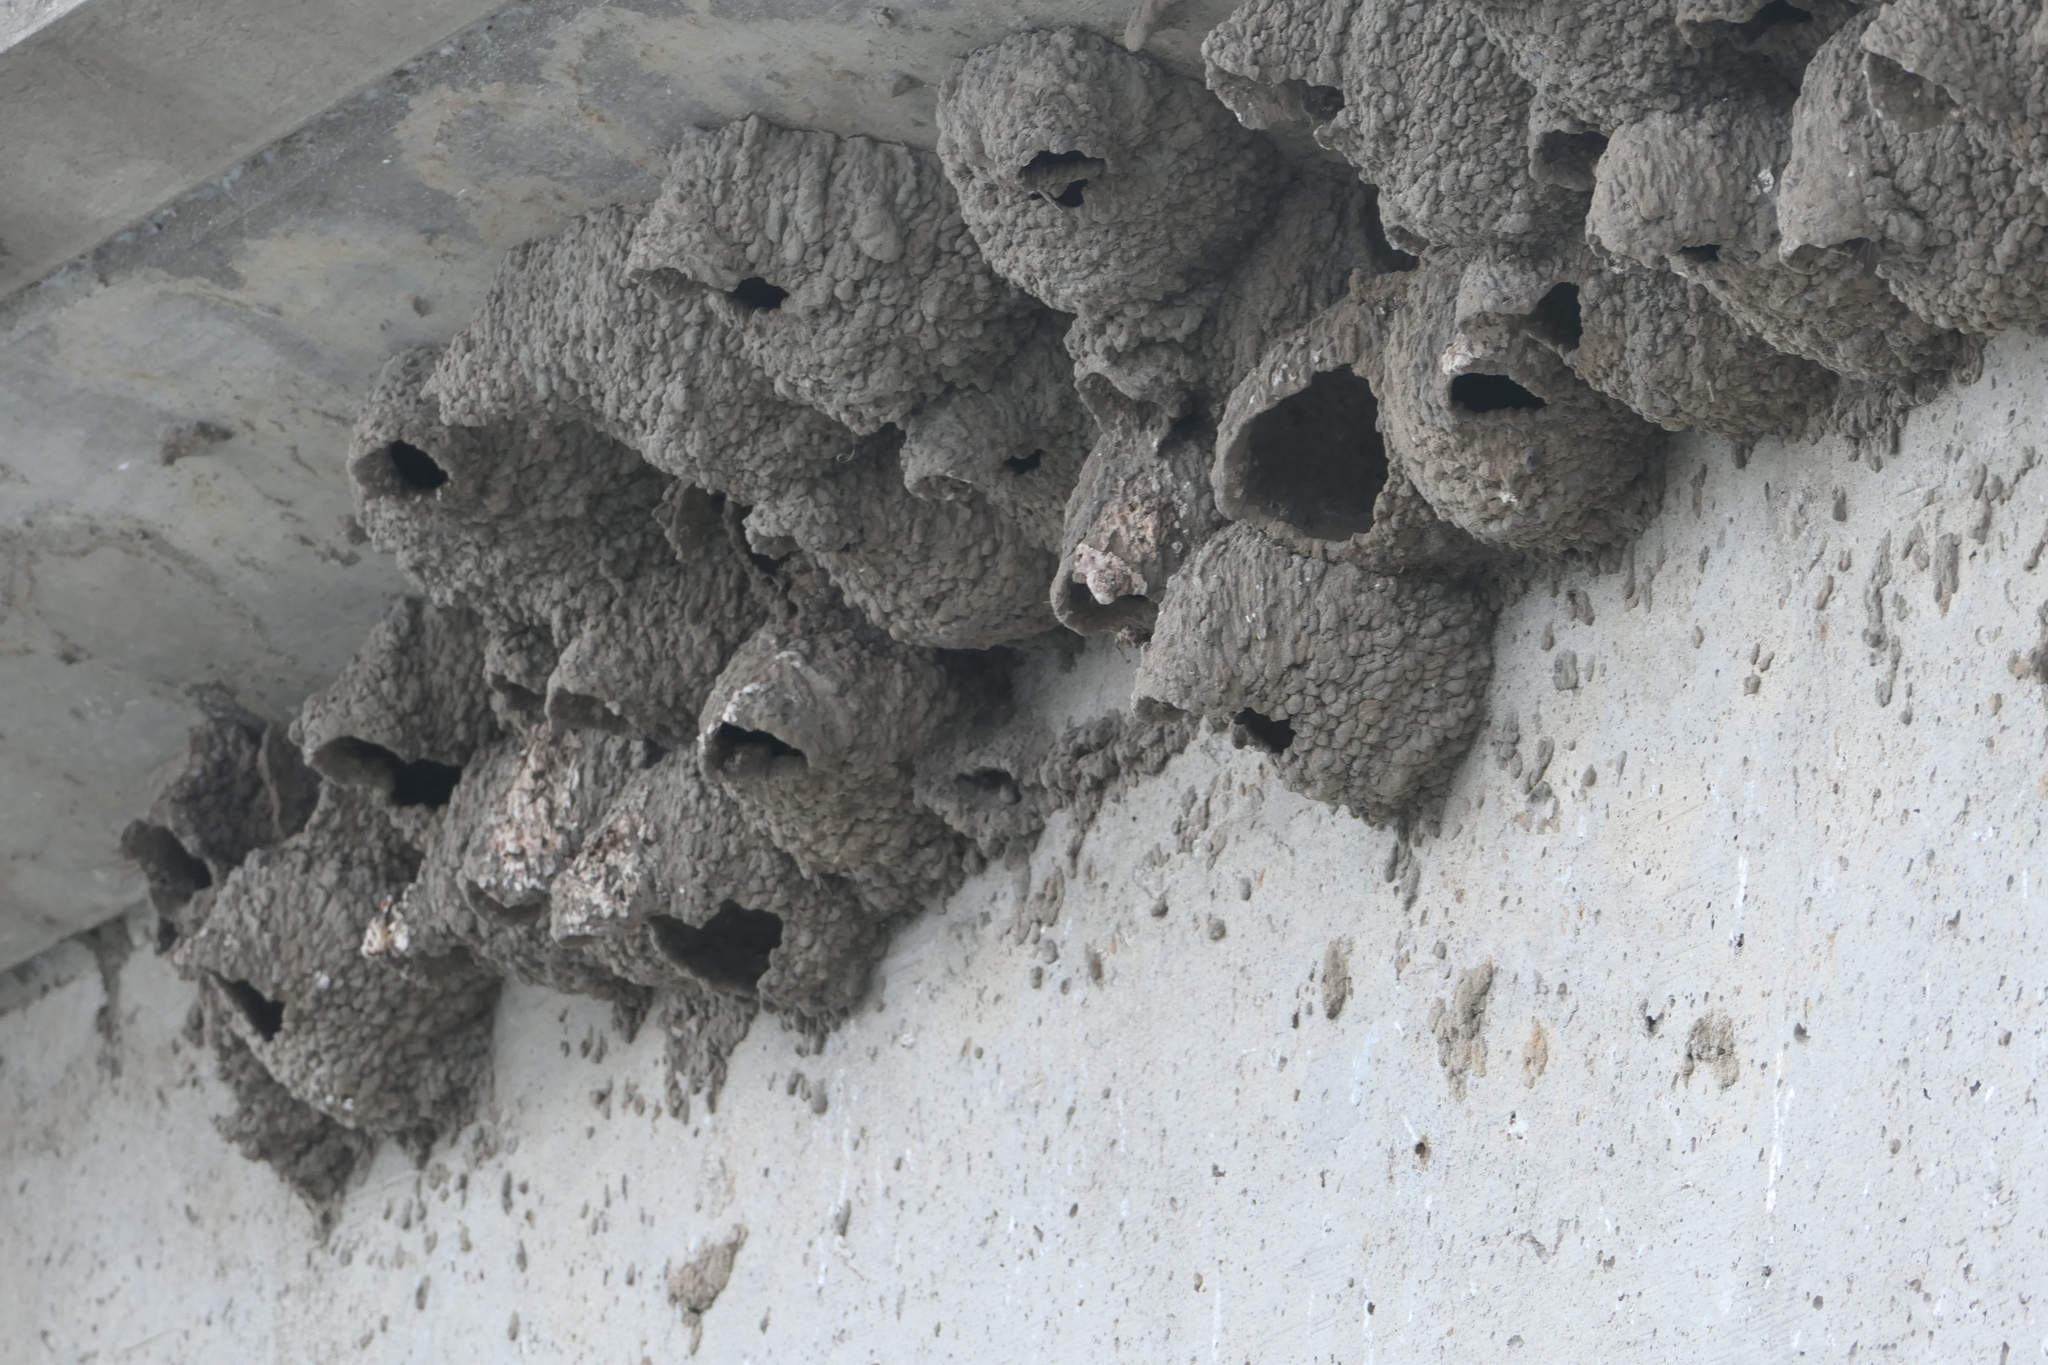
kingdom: Animalia
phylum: Chordata
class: Aves
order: Passeriformes
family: Hirundinidae
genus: Petrochelidon
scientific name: Petrochelidon pyrrhonota
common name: American cliff swallow
